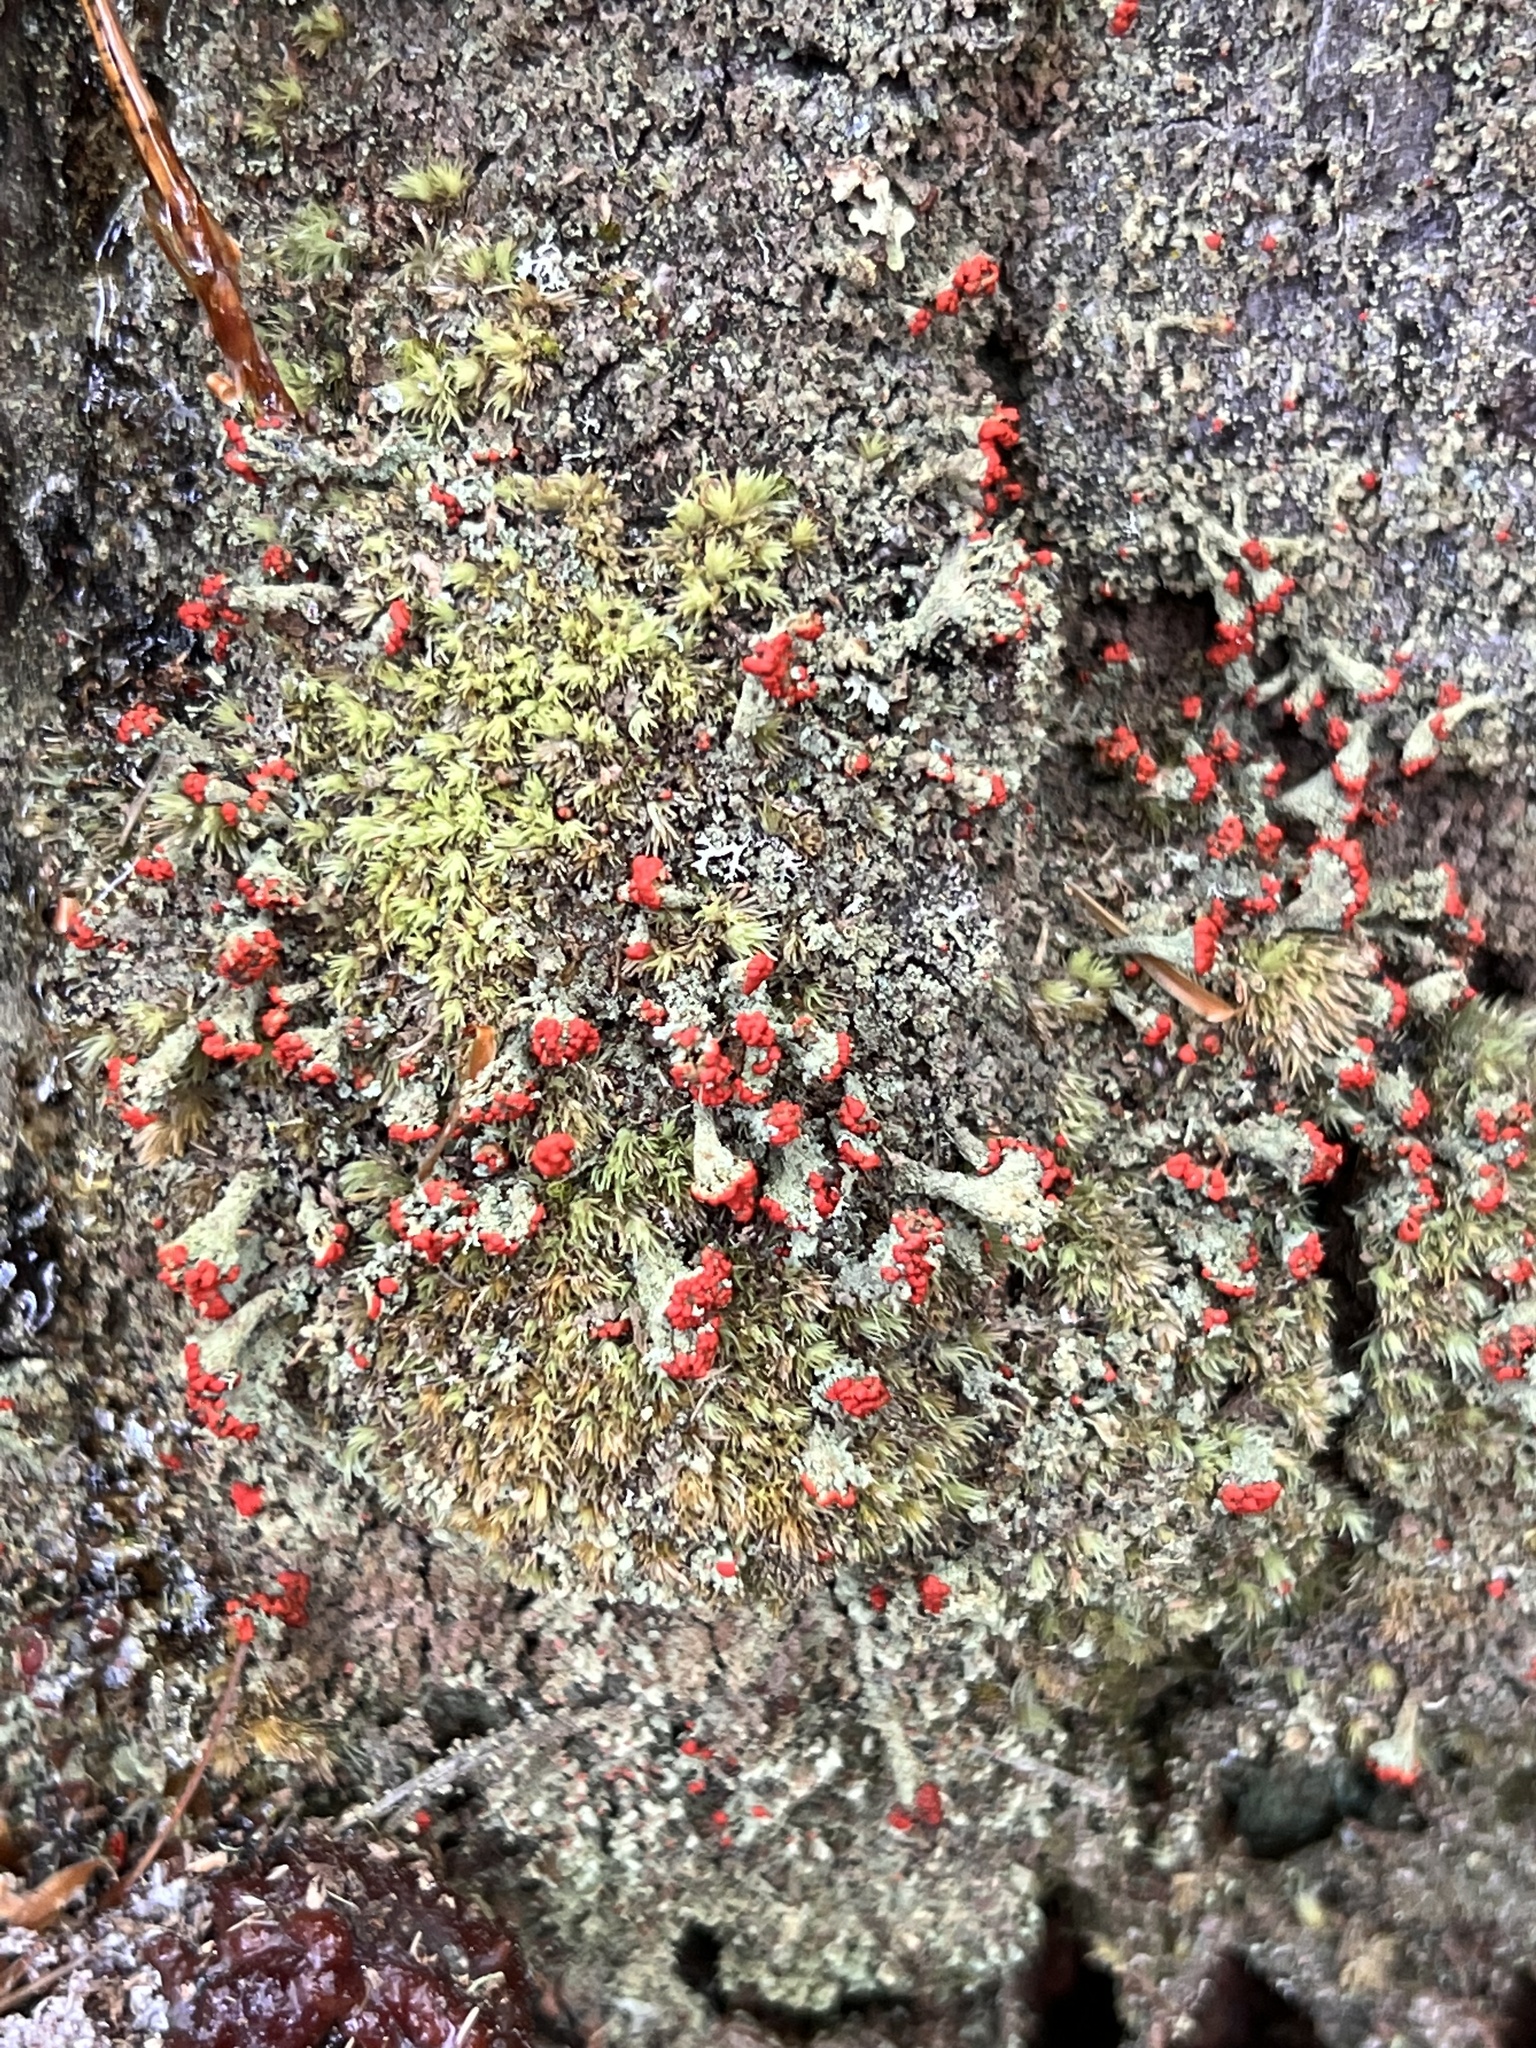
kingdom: Fungi
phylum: Ascomycota
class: Lecanoromycetes
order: Lecanorales
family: Cladoniaceae
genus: Cladonia
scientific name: Cladonia didyma
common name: Southern soldiers
